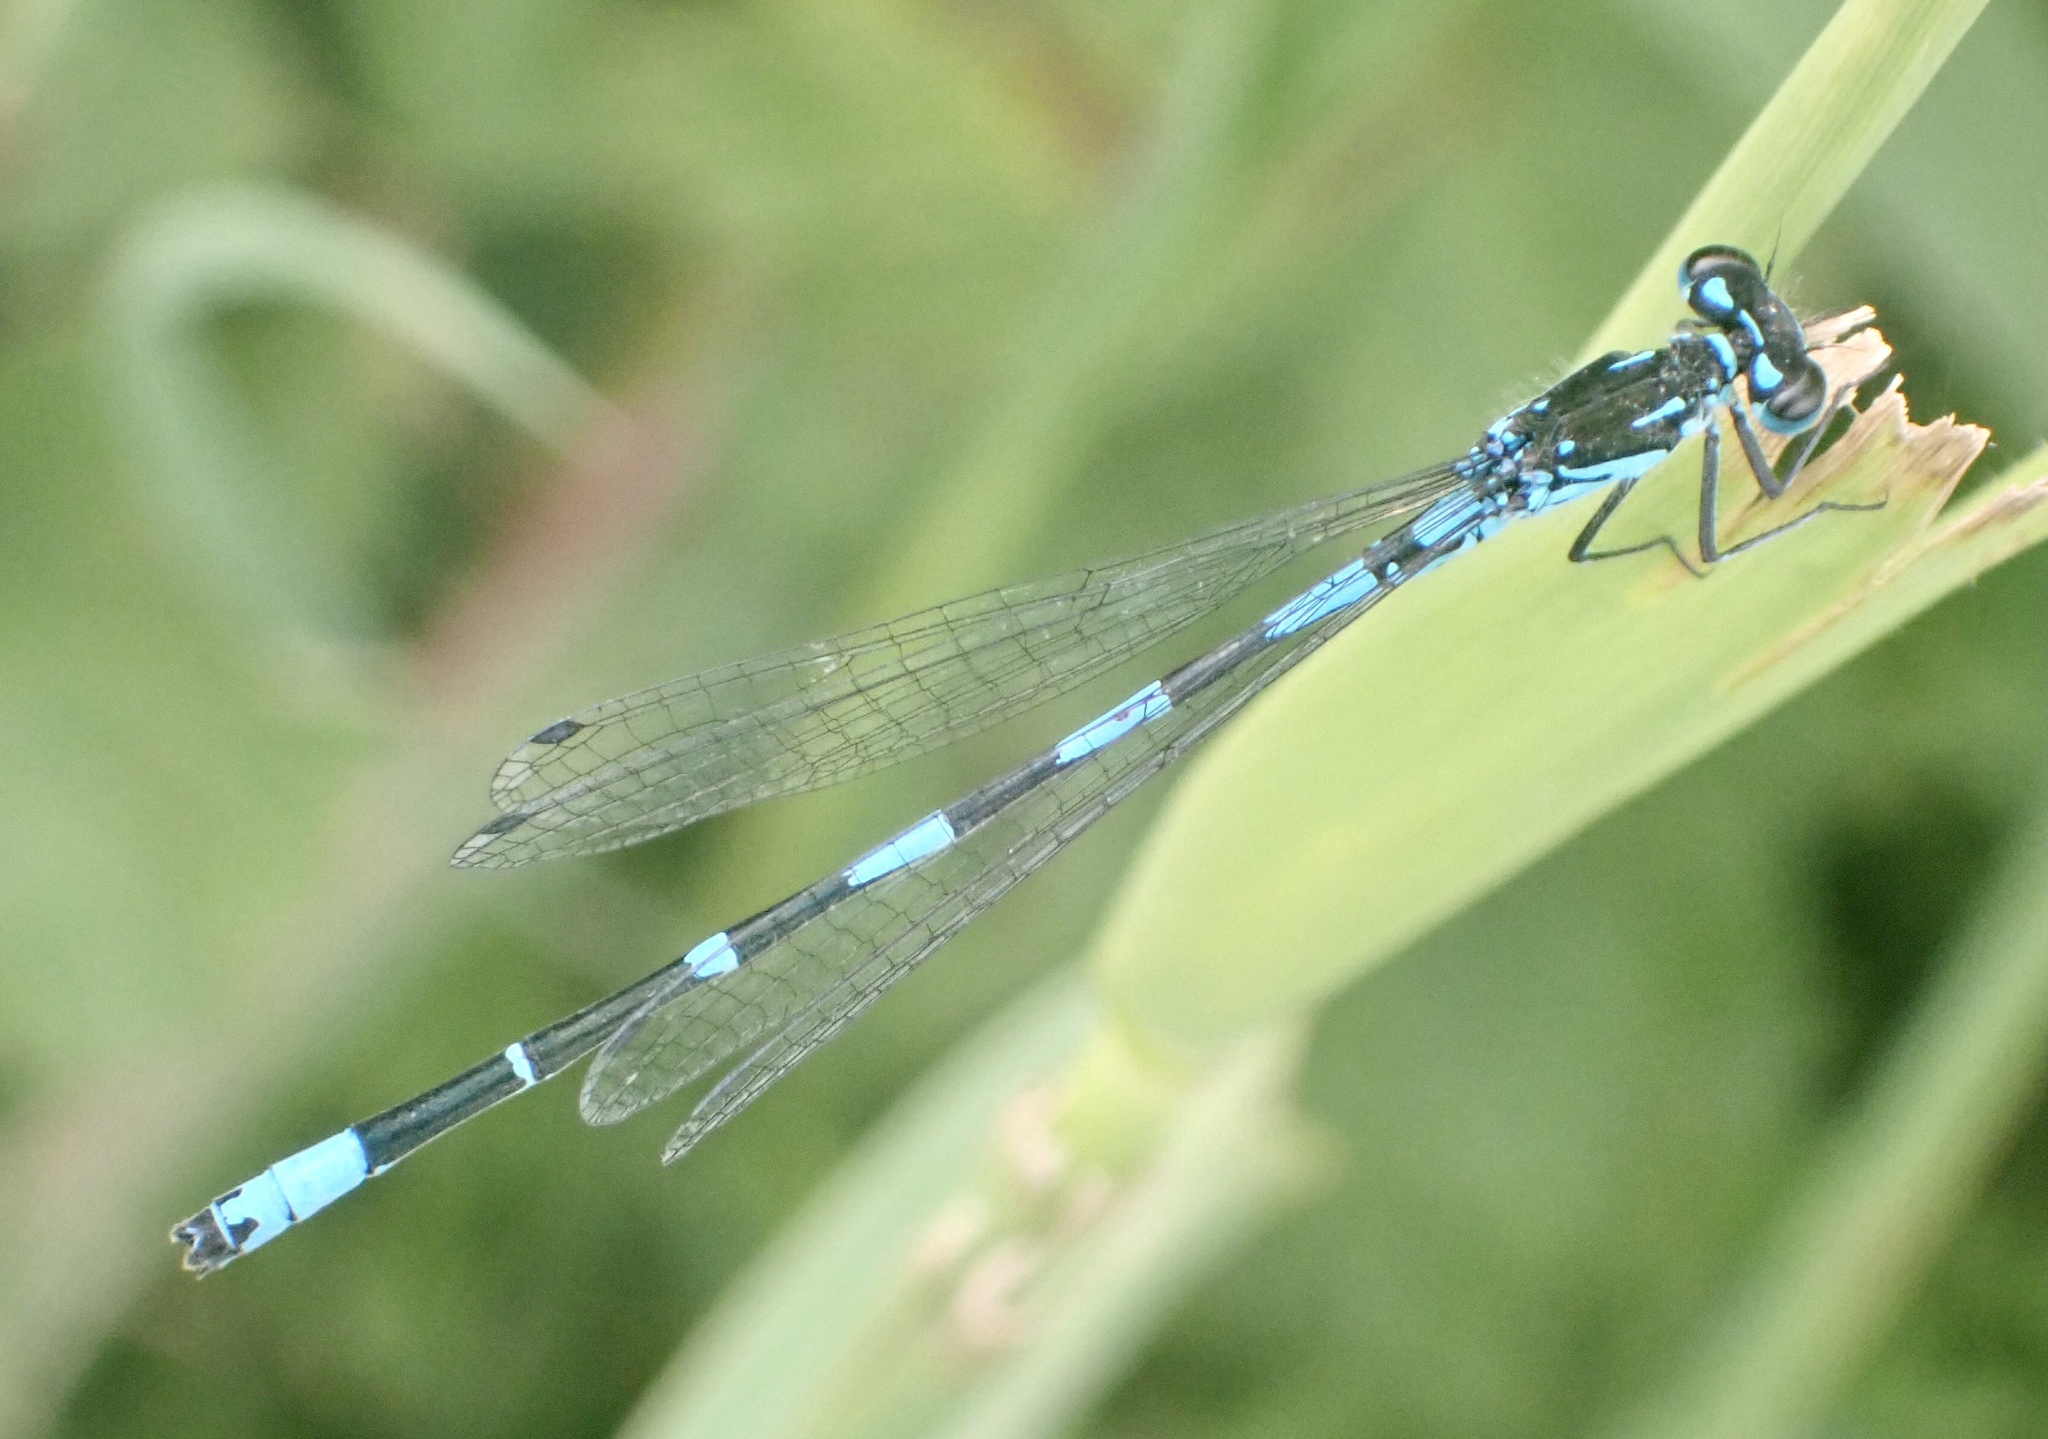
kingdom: Animalia
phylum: Arthropoda
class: Insecta
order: Odonata
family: Coenagrionidae
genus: Coenagrion
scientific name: Coenagrion pulchellum
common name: Variable bluet
